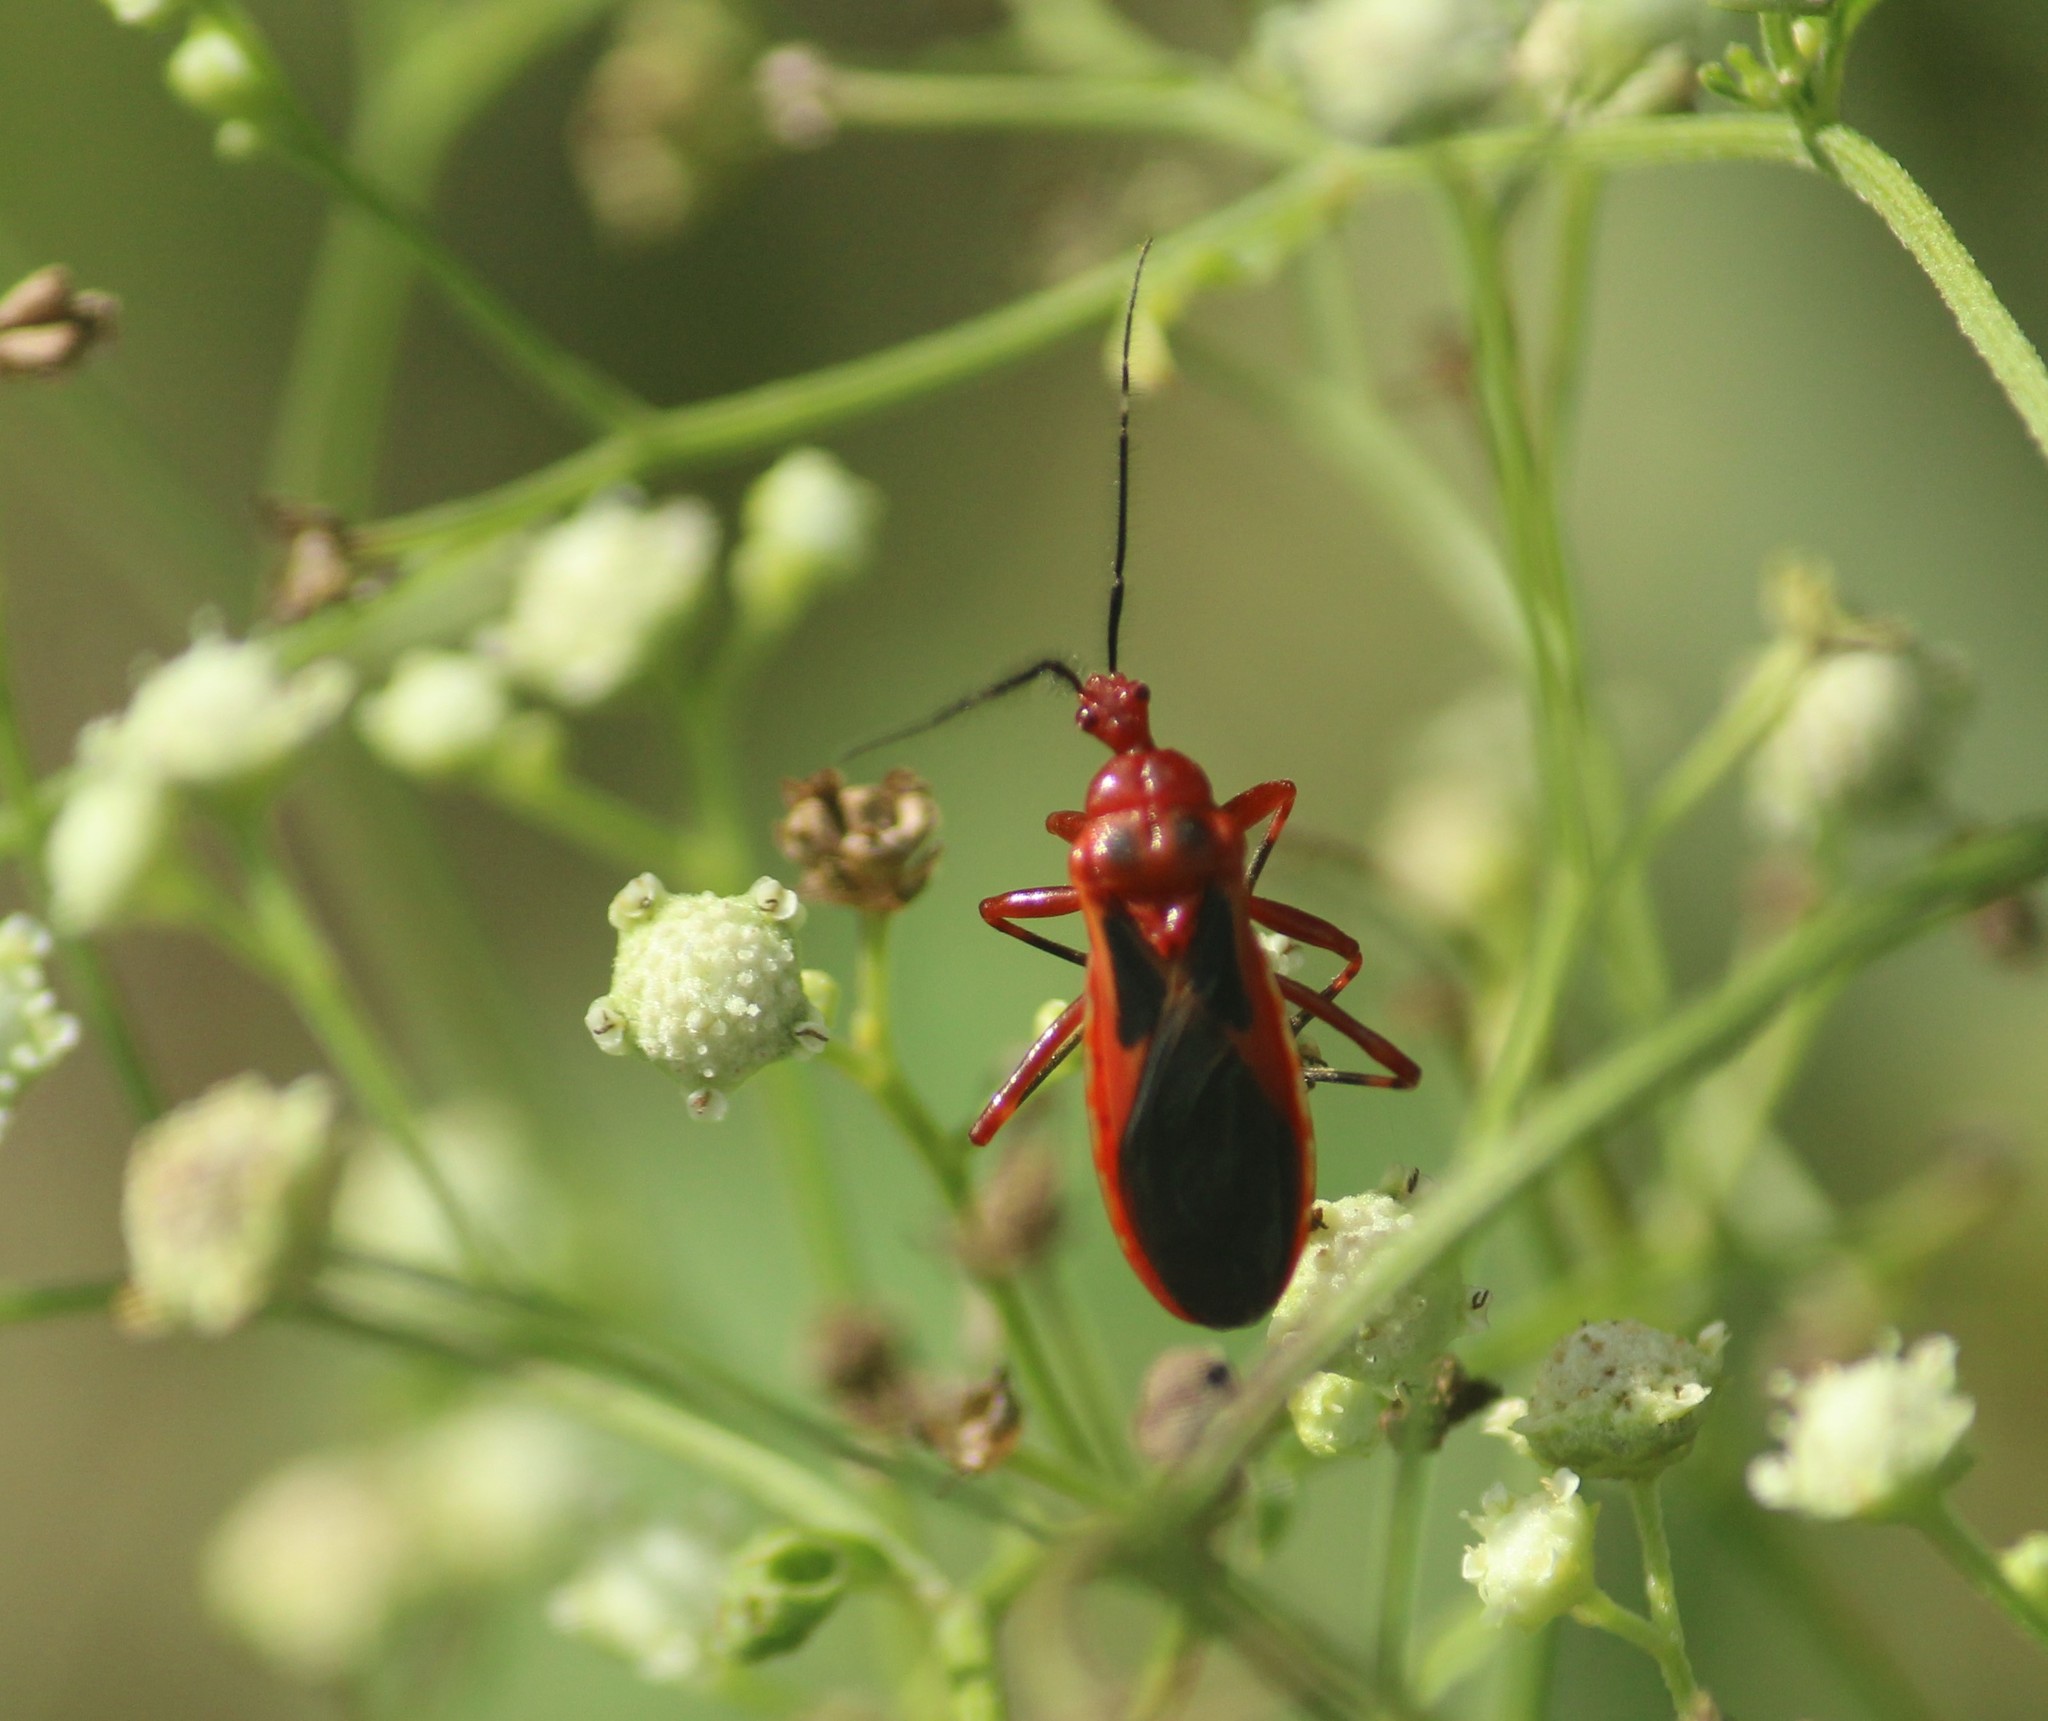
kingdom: Animalia
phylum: Arthropoda
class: Insecta
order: Hemiptera
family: Reduviidae
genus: Scadra
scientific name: Scadra annulipes
